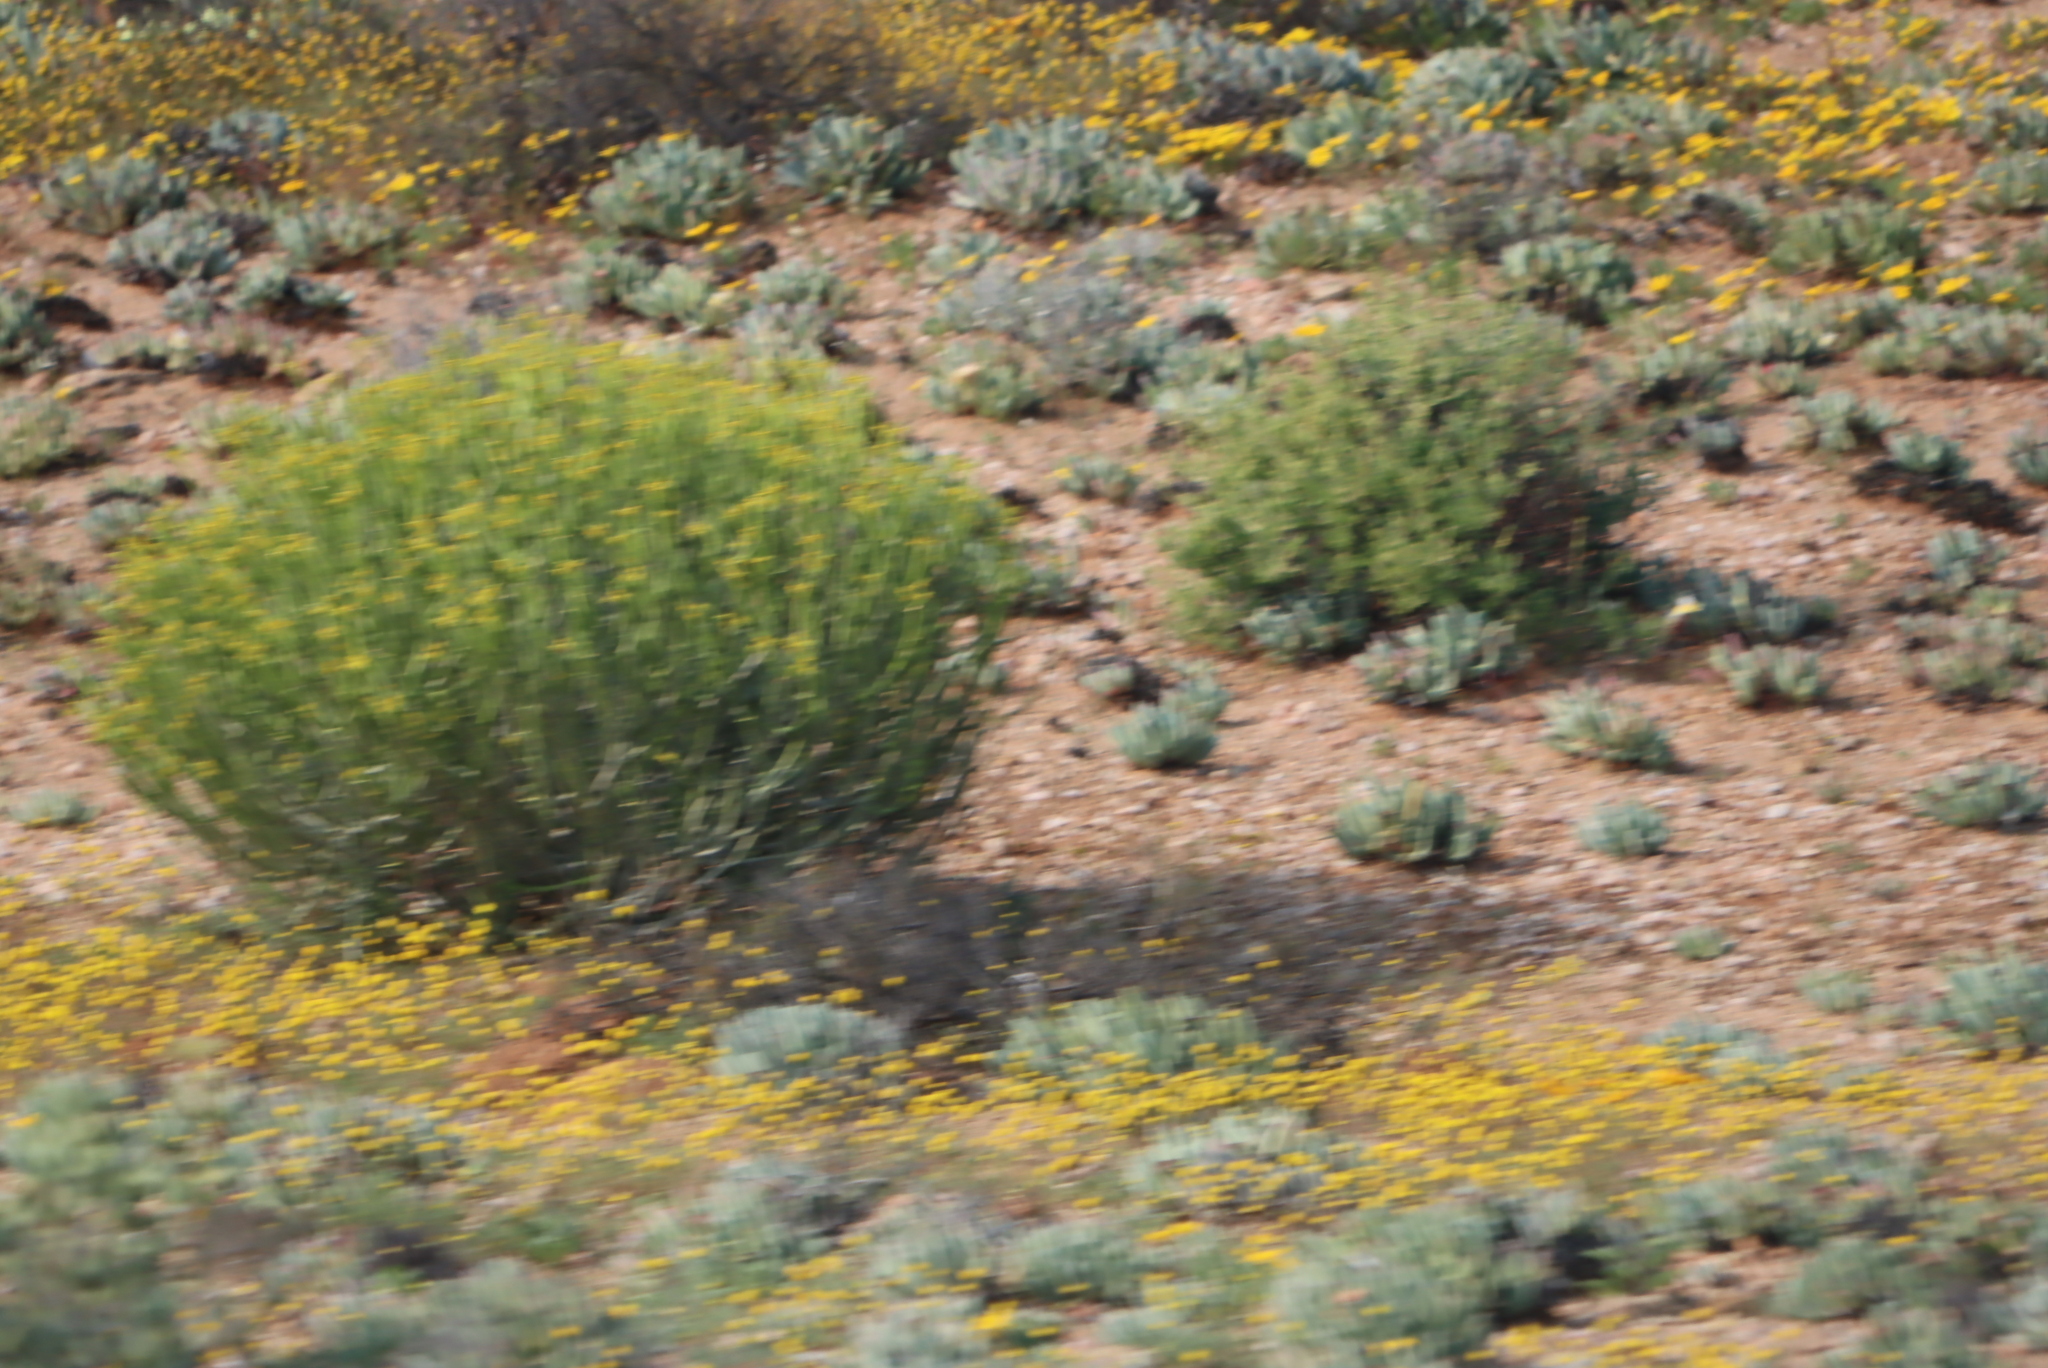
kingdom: Plantae
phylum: Tracheophyta
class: Magnoliopsida
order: Malpighiales
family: Euphorbiaceae
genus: Euphorbia
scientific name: Euphorbia mauritanica
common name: Jackal's-food
